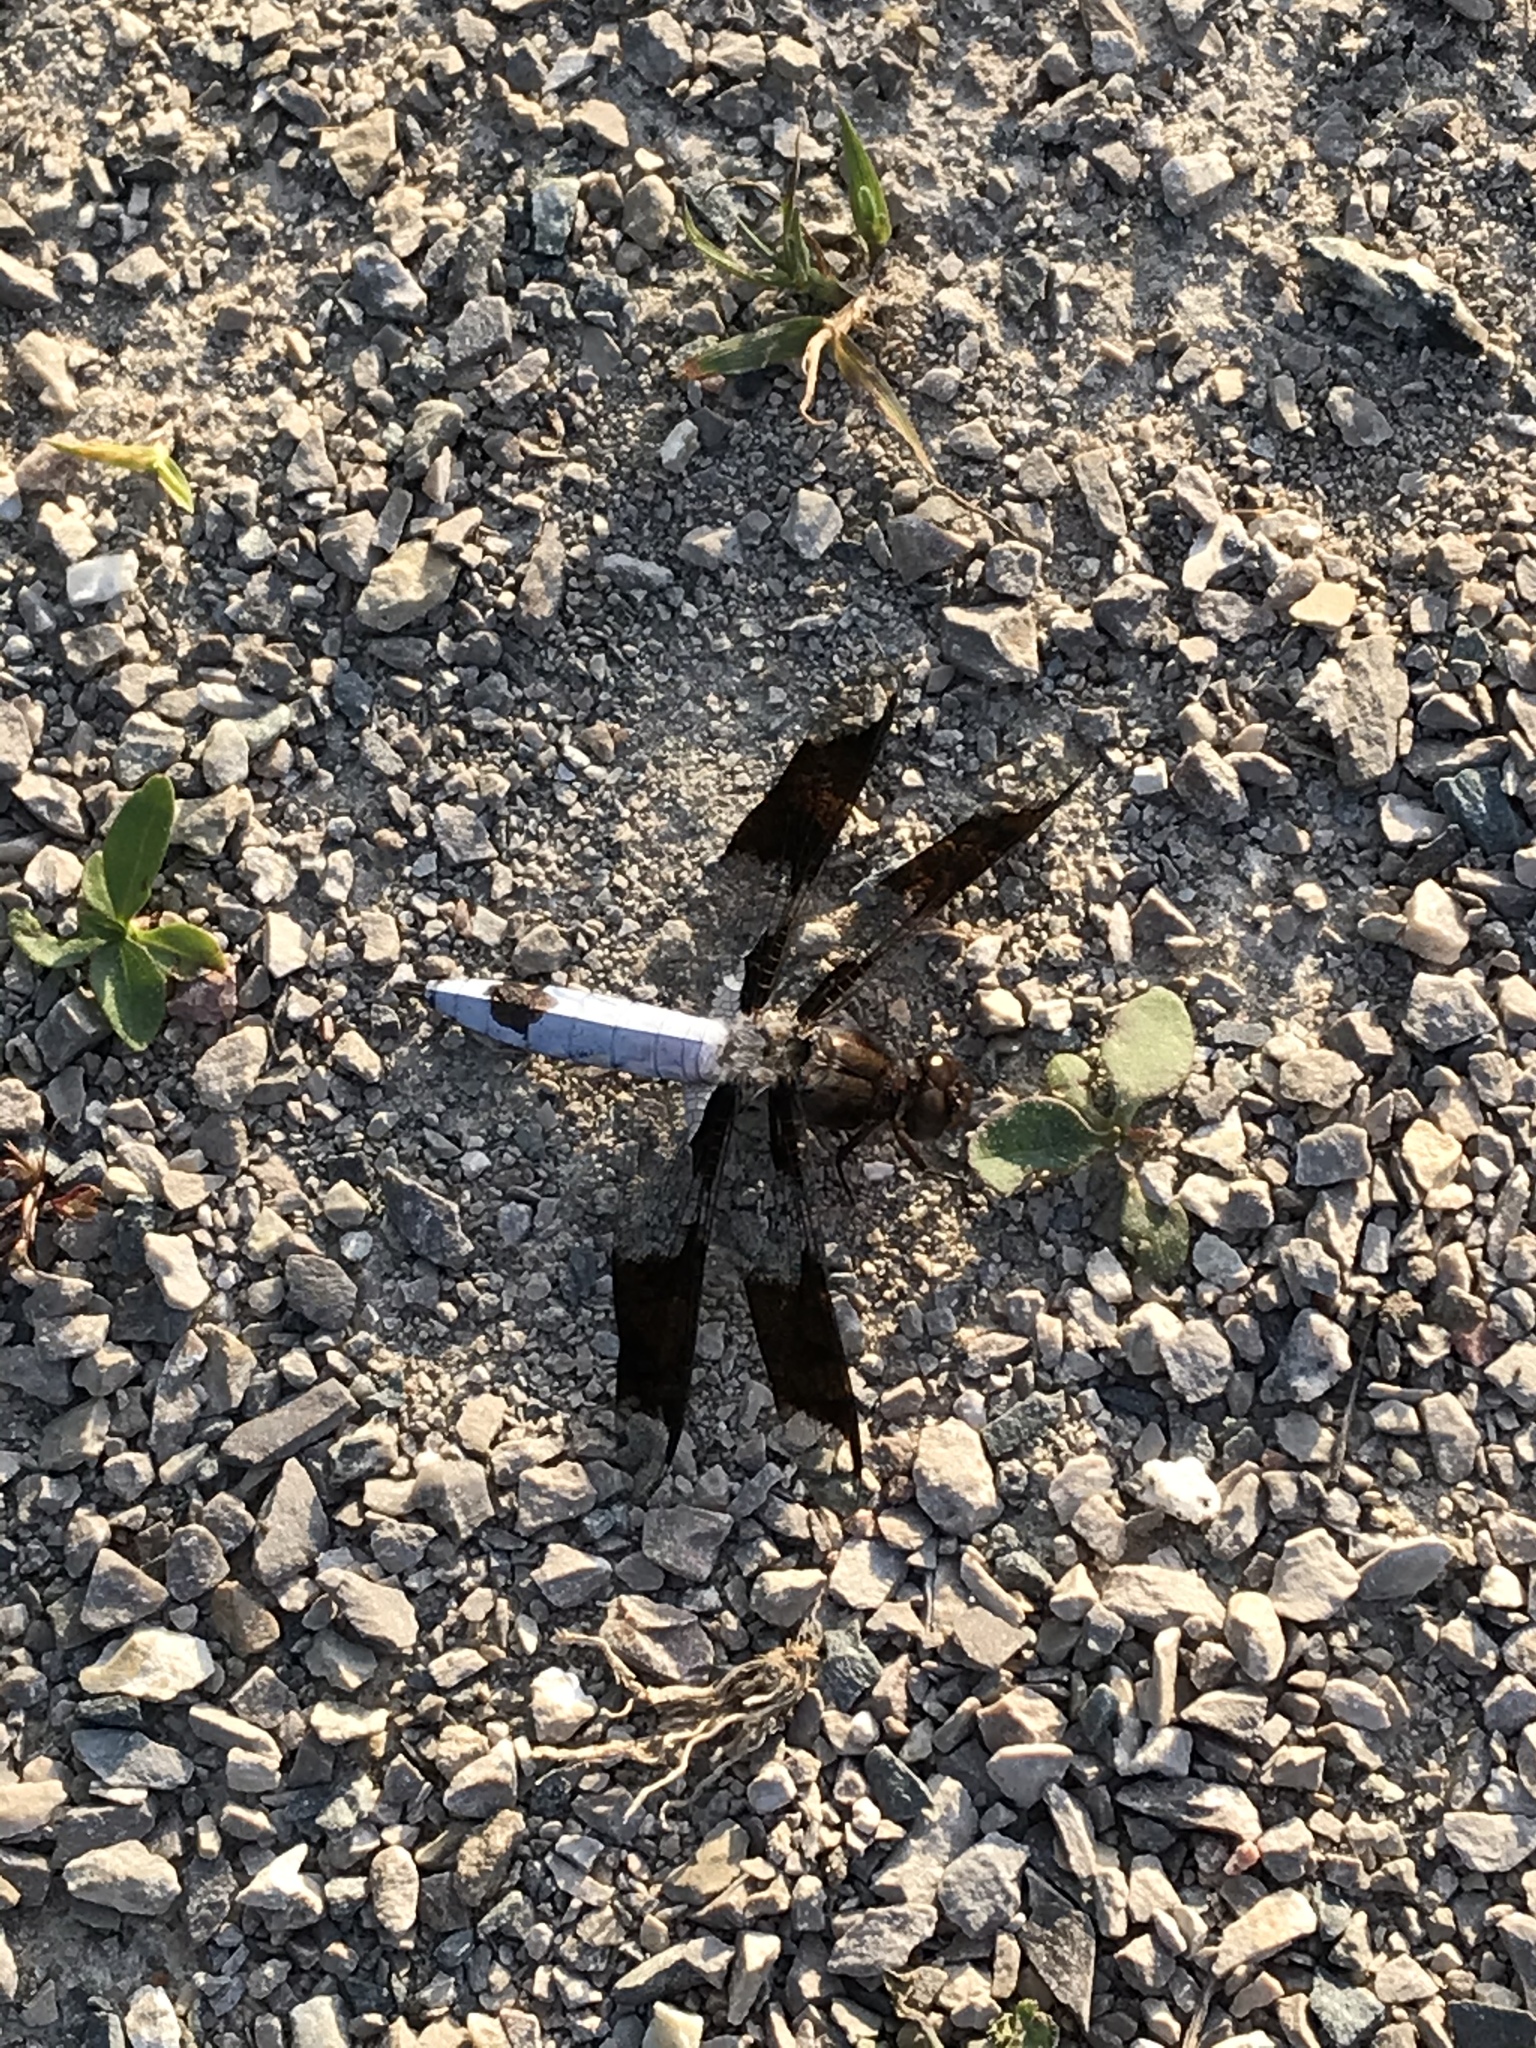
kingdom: Animalia
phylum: Arthropoda
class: Insecta
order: Odonata
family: Libellulidae
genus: Plathemis
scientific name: Plathemis lydia
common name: Common whitetail
